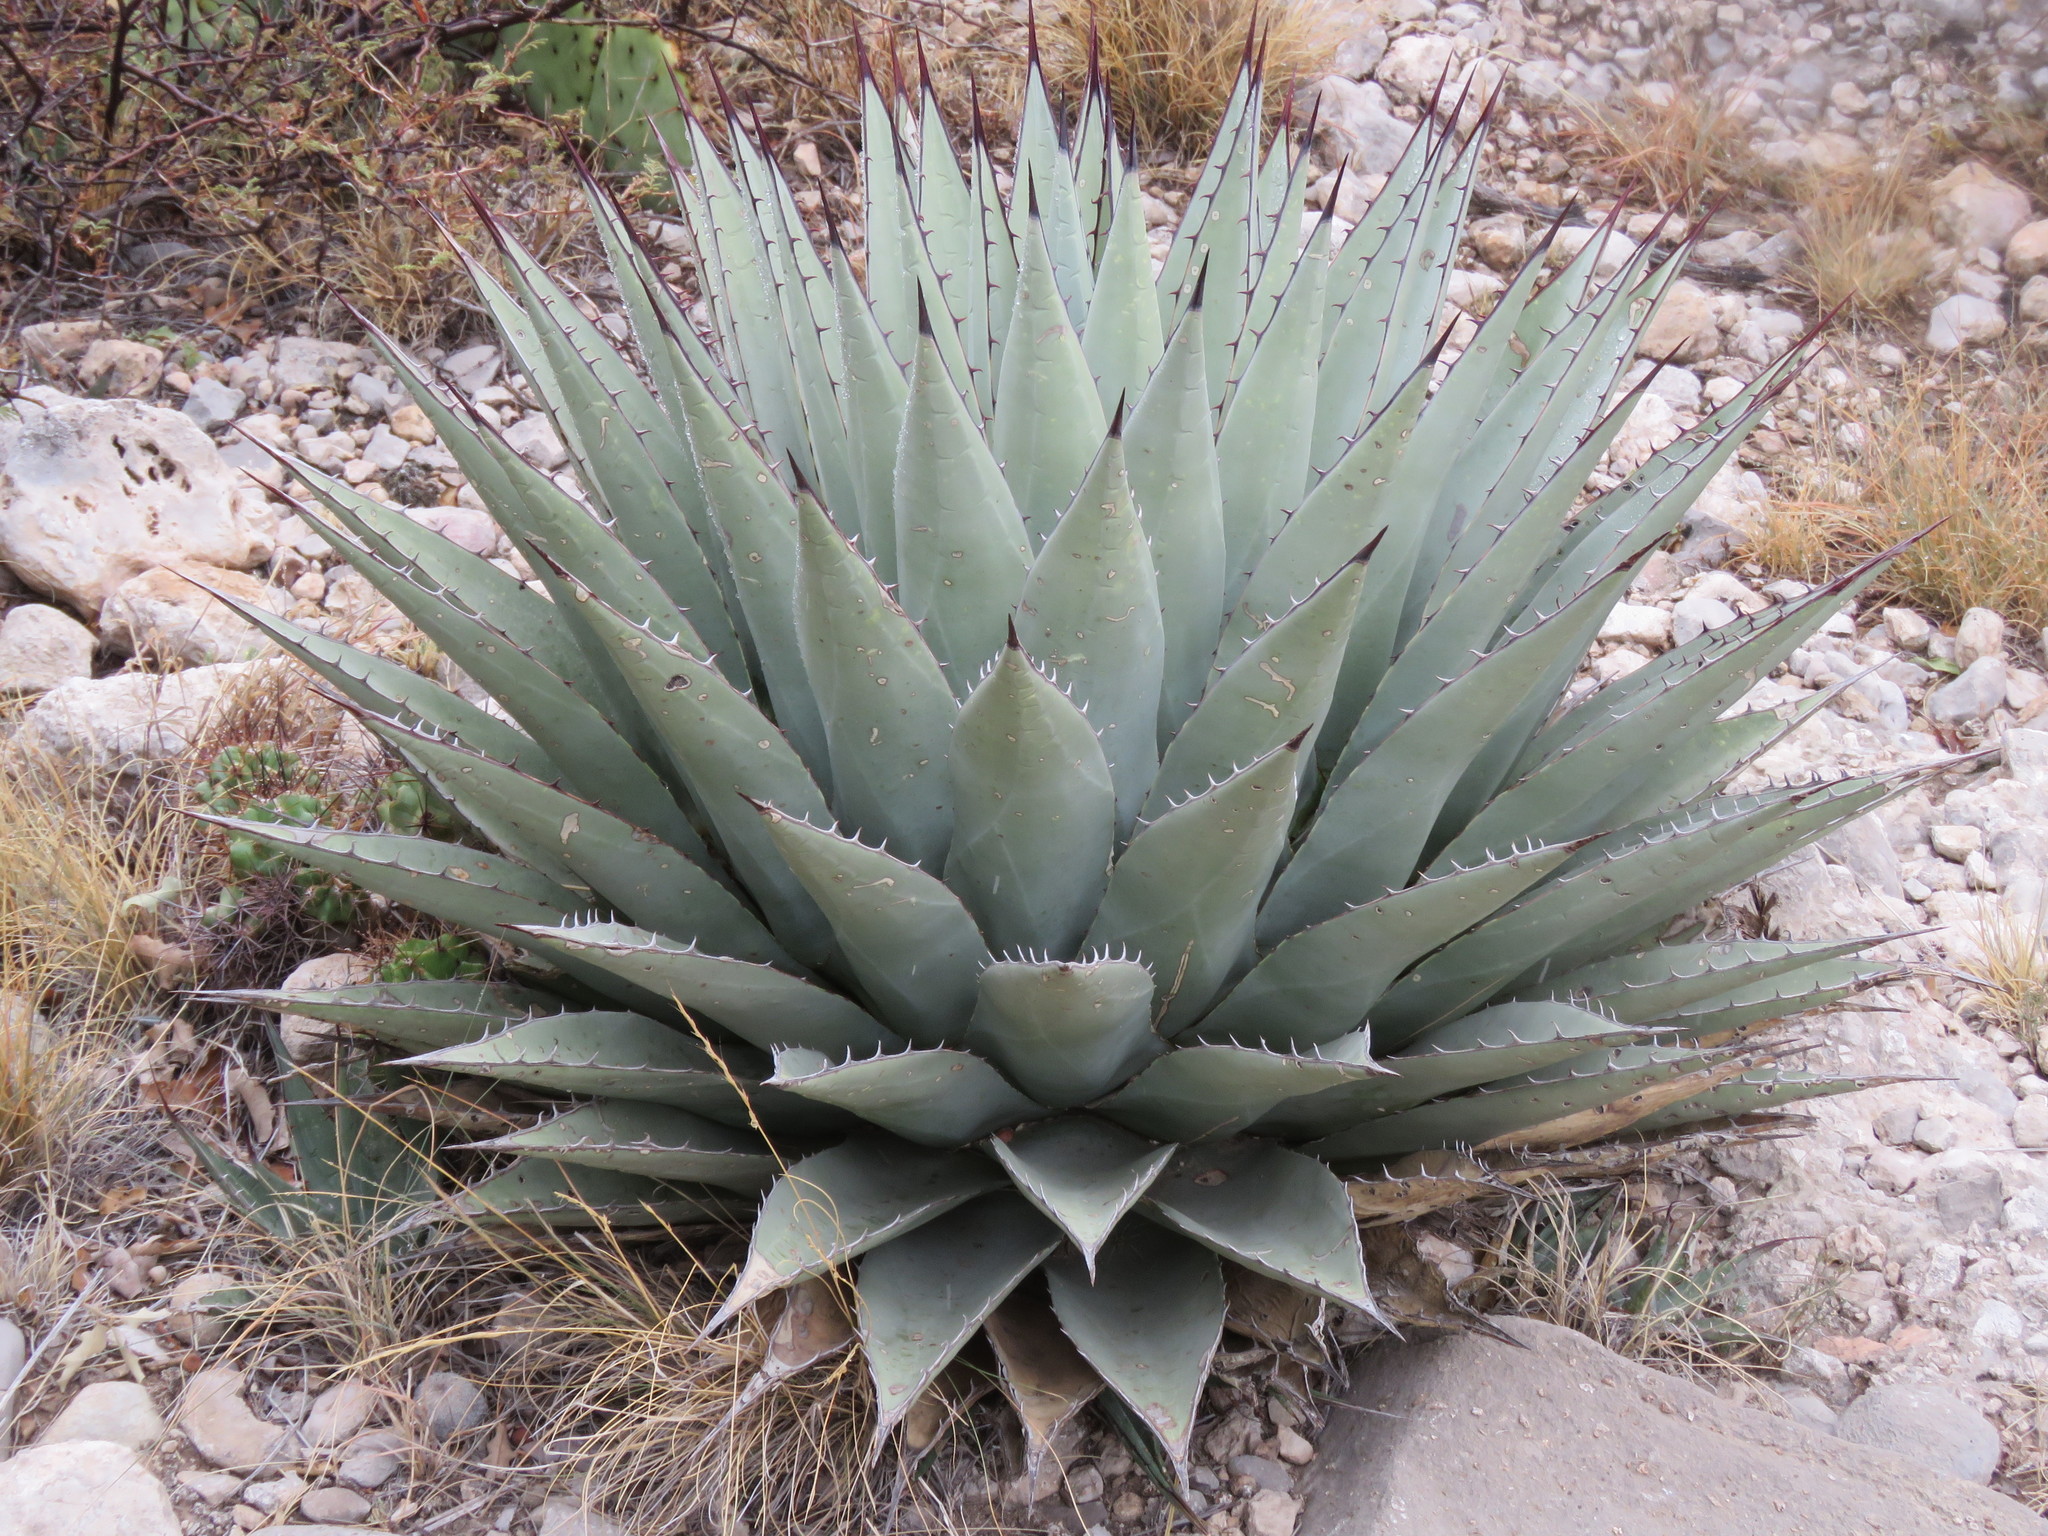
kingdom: Plantae
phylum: Tracheophyta
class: Liliopsida
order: Asparagales
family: Asparagaceae
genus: Agave
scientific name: Agave parryi
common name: Parry's agave
